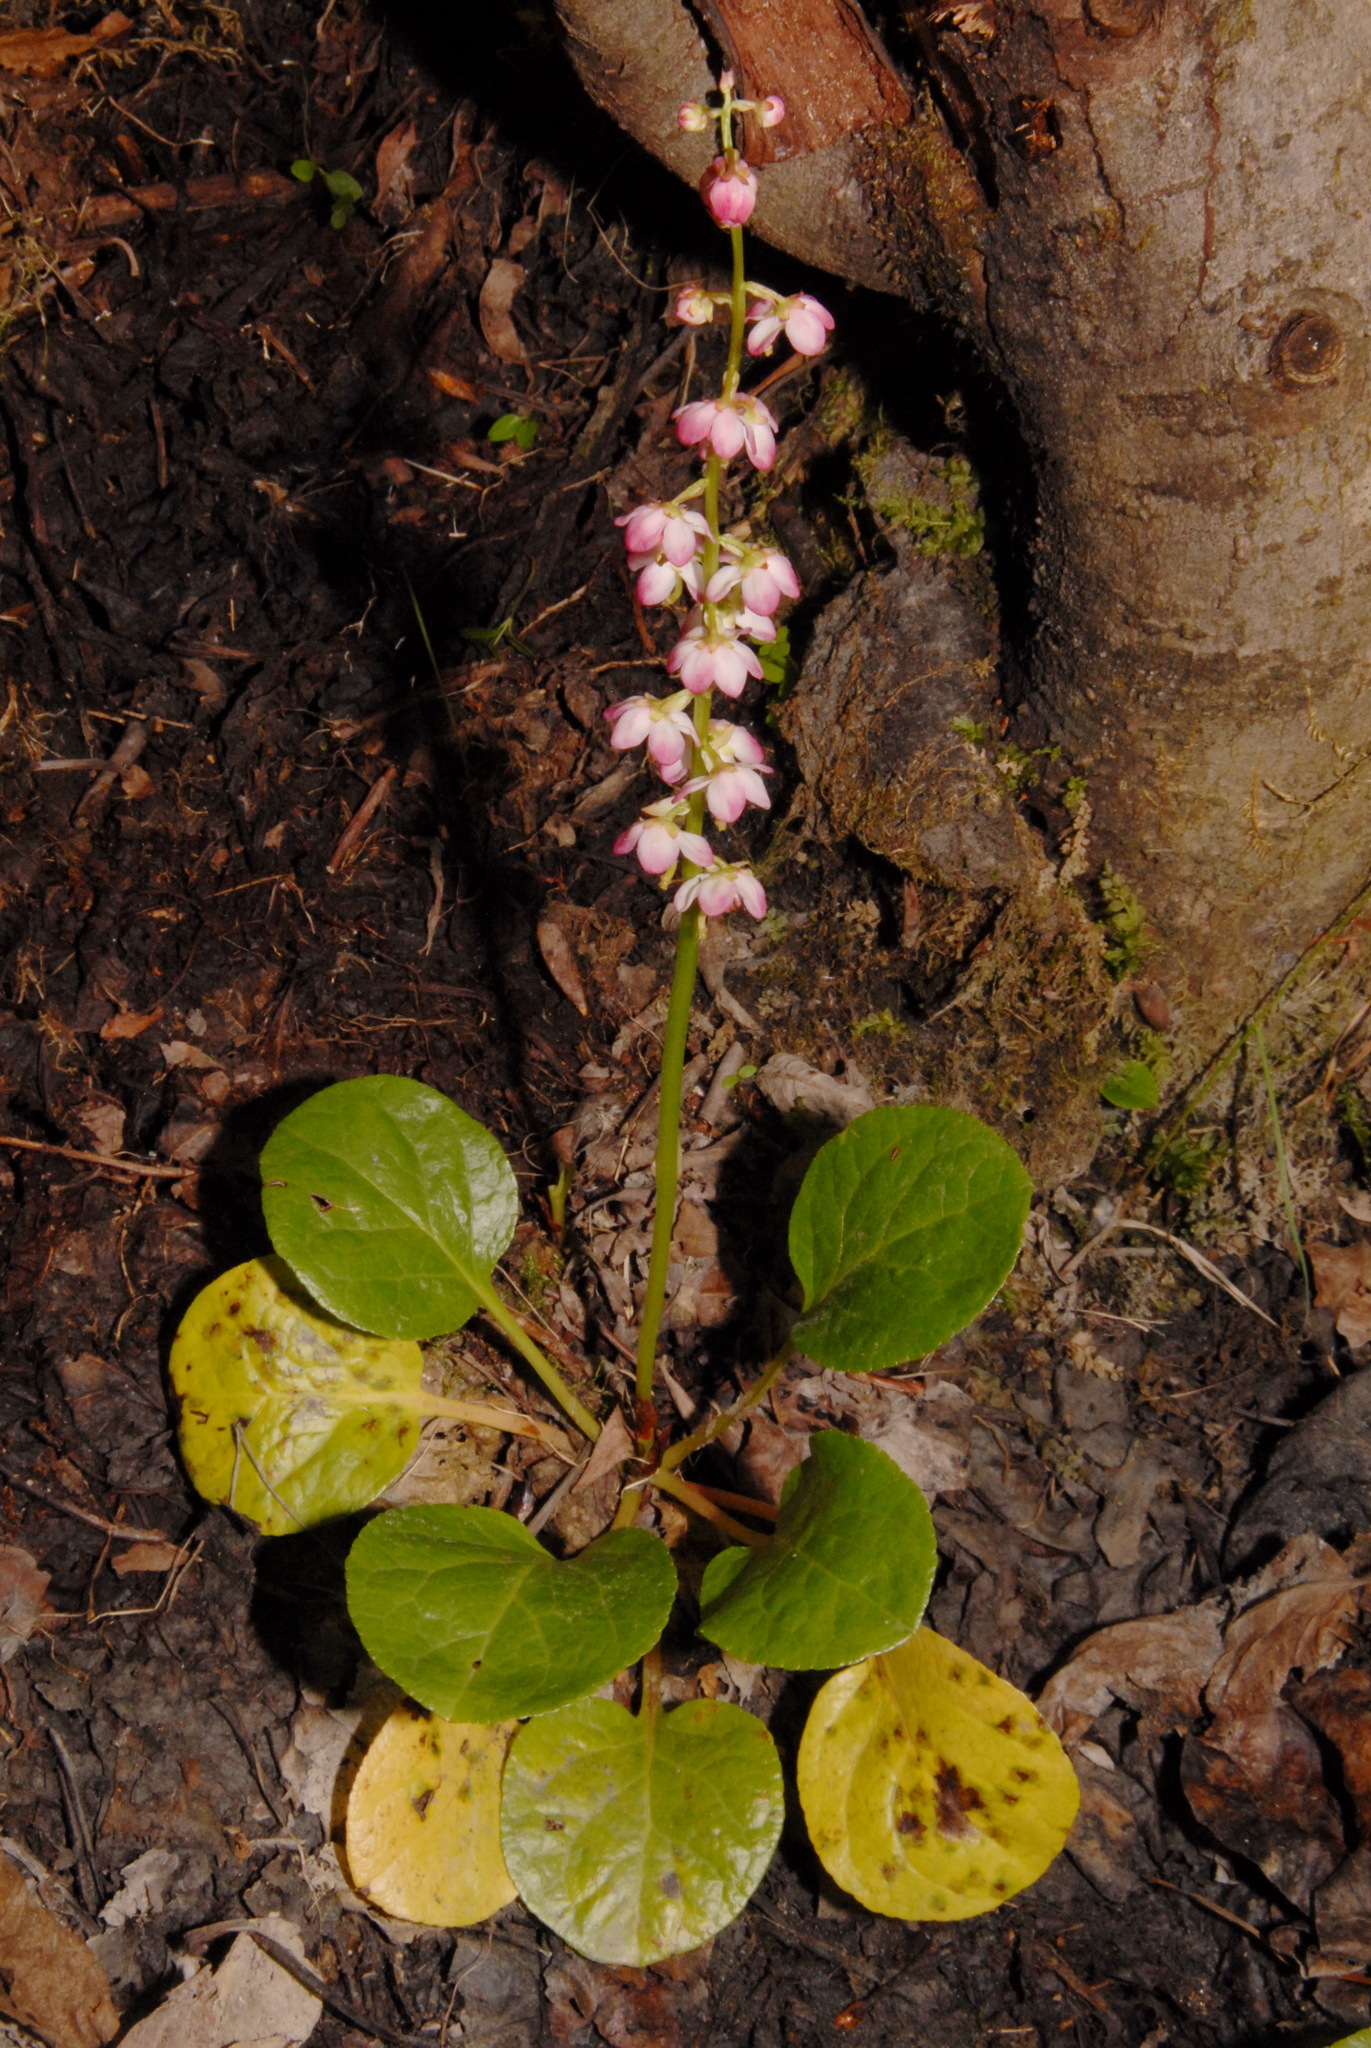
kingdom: Plantae
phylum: Tracheophyta
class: Magnoliopsida
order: Ericales
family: Ericaceae
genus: Pyrola
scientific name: Pyrola asarifolia
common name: Bog wintergreen
